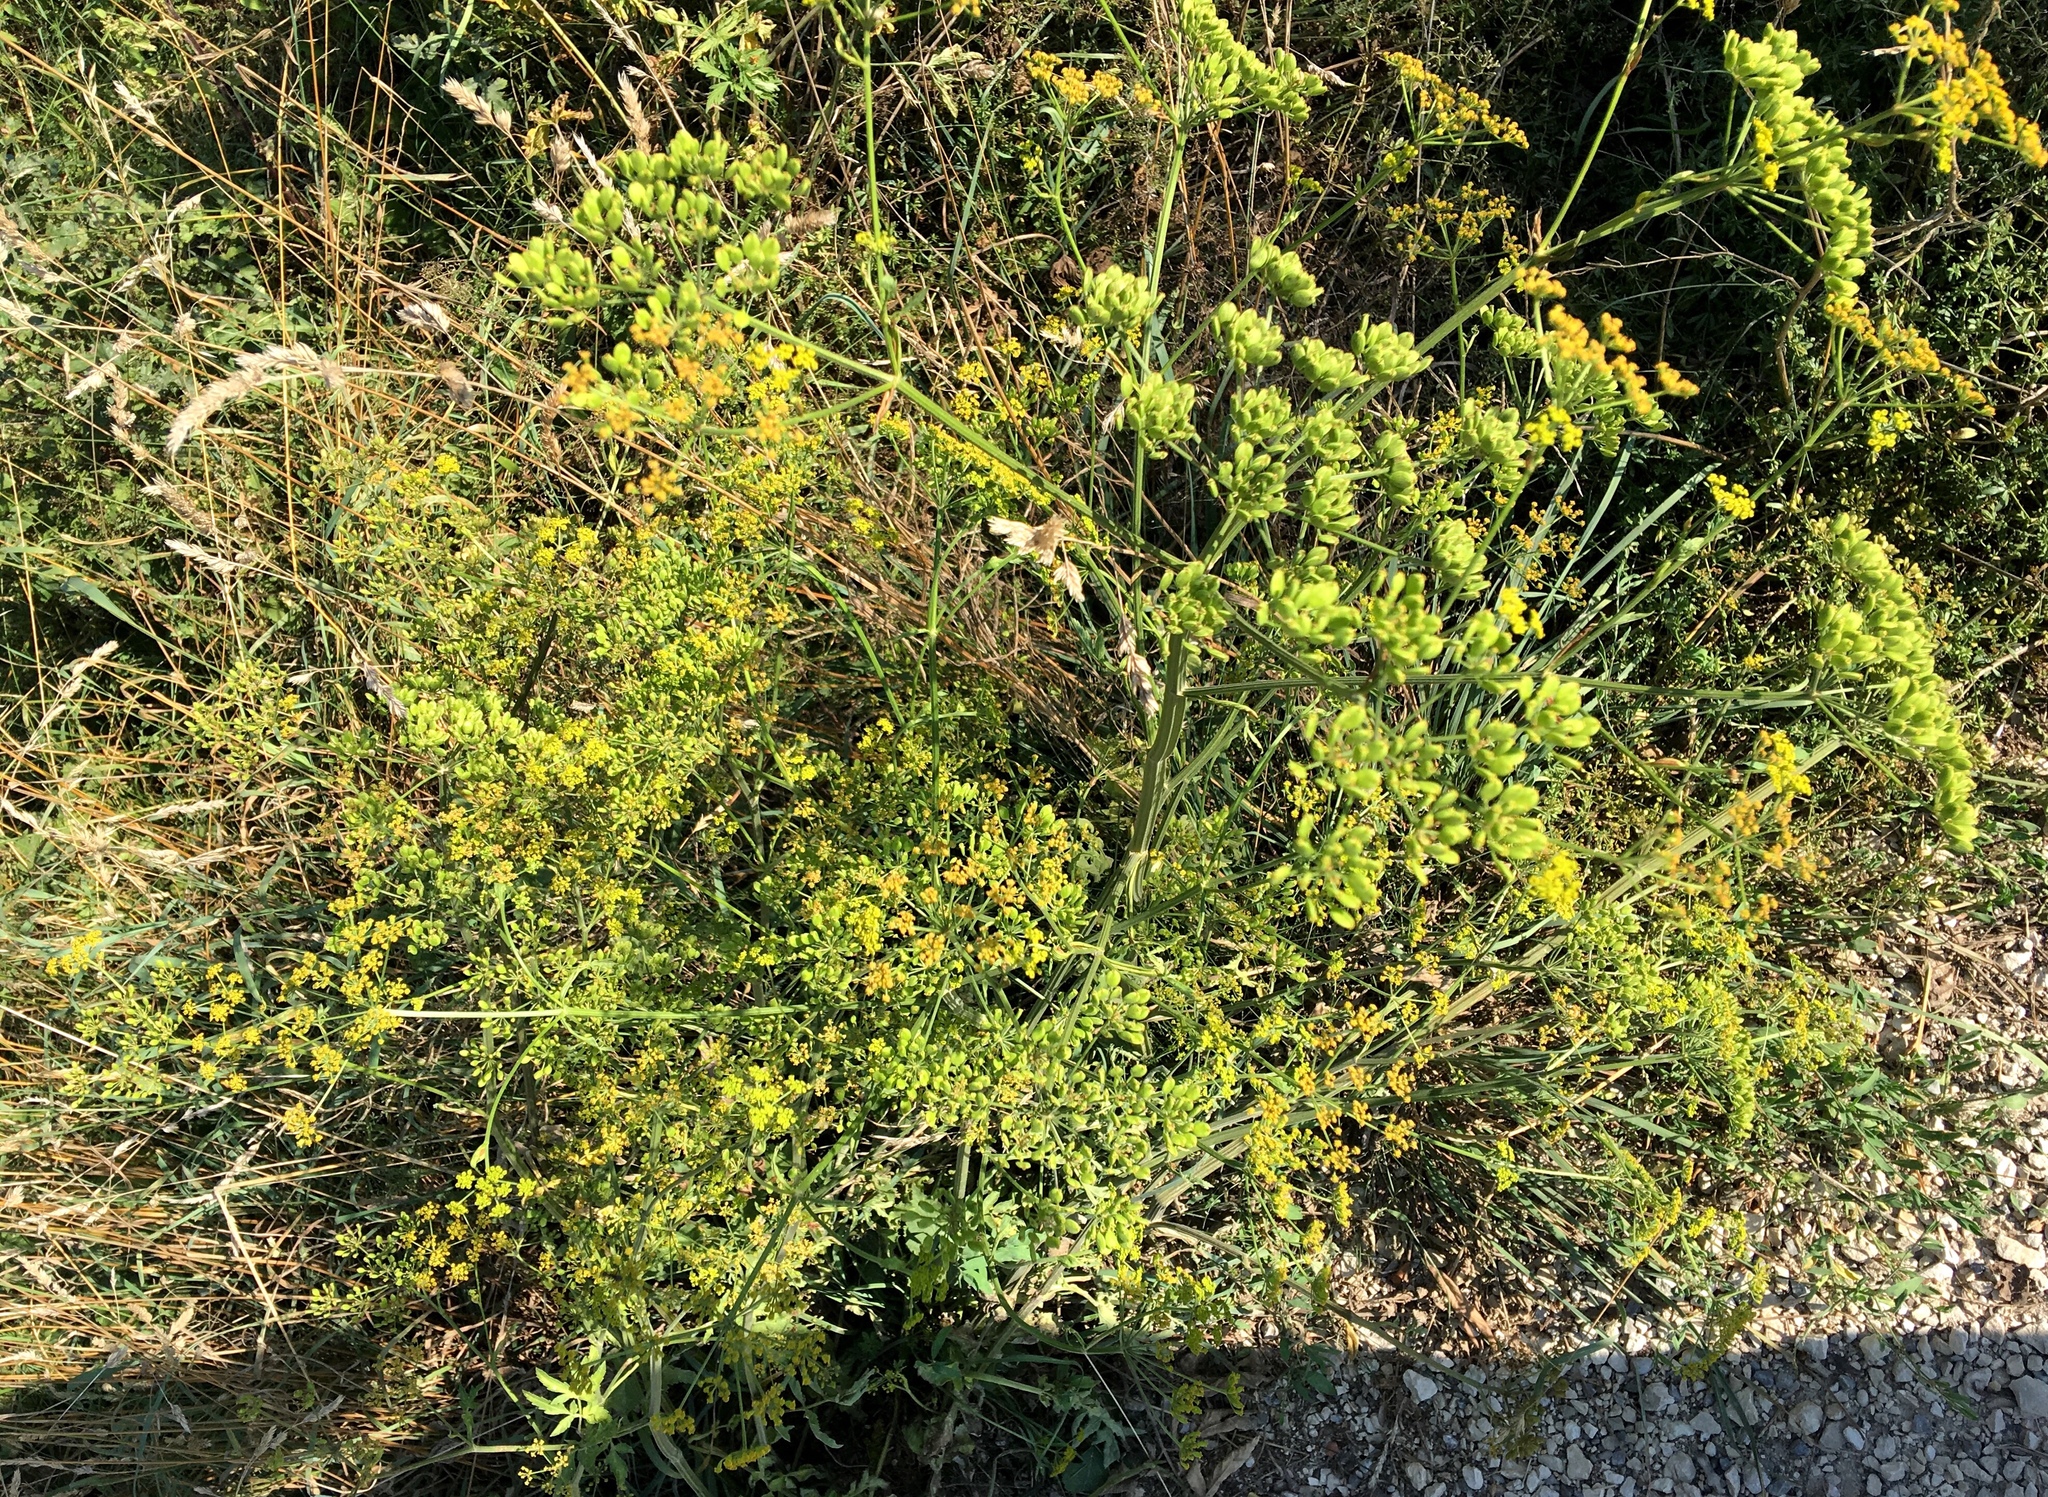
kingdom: Plantae
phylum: Tracheophyta
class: Magnoliopsida
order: Apiales
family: Apiaceae
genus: Pastinaca
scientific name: Pastinaca sativa
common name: Wild parsnip
